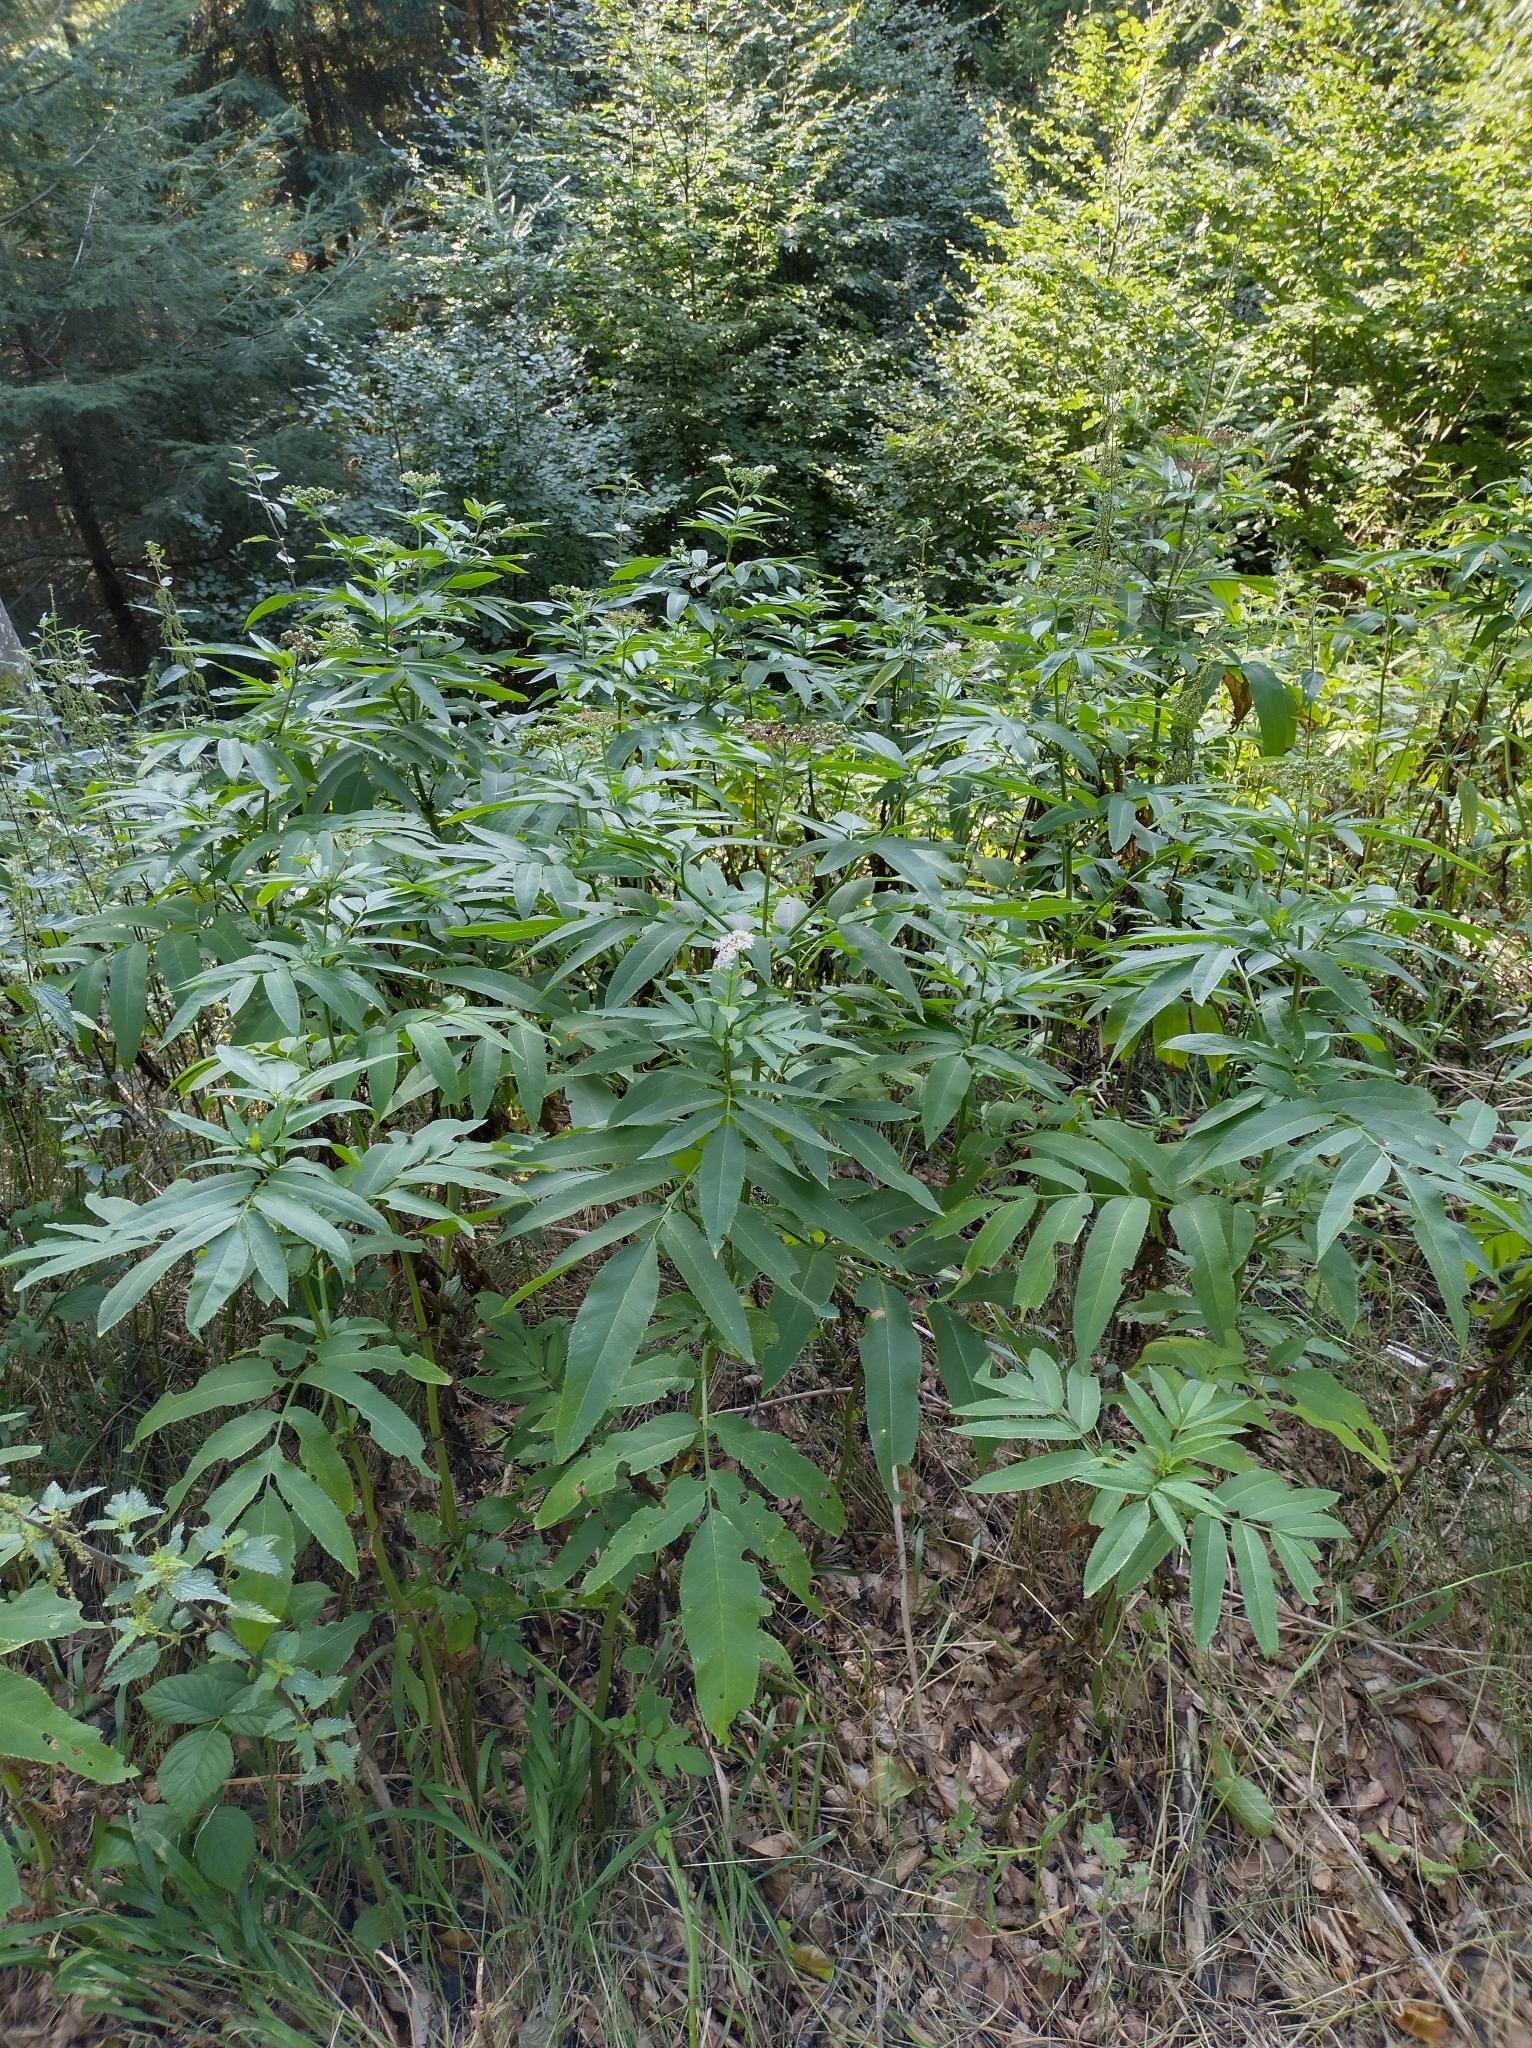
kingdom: Plantae
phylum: Tracheophyta
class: Magnoliopsida
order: Dipsacales
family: Viburnaceae
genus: Sambucus
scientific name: Sambucus ebulus
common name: Dwarf elder
